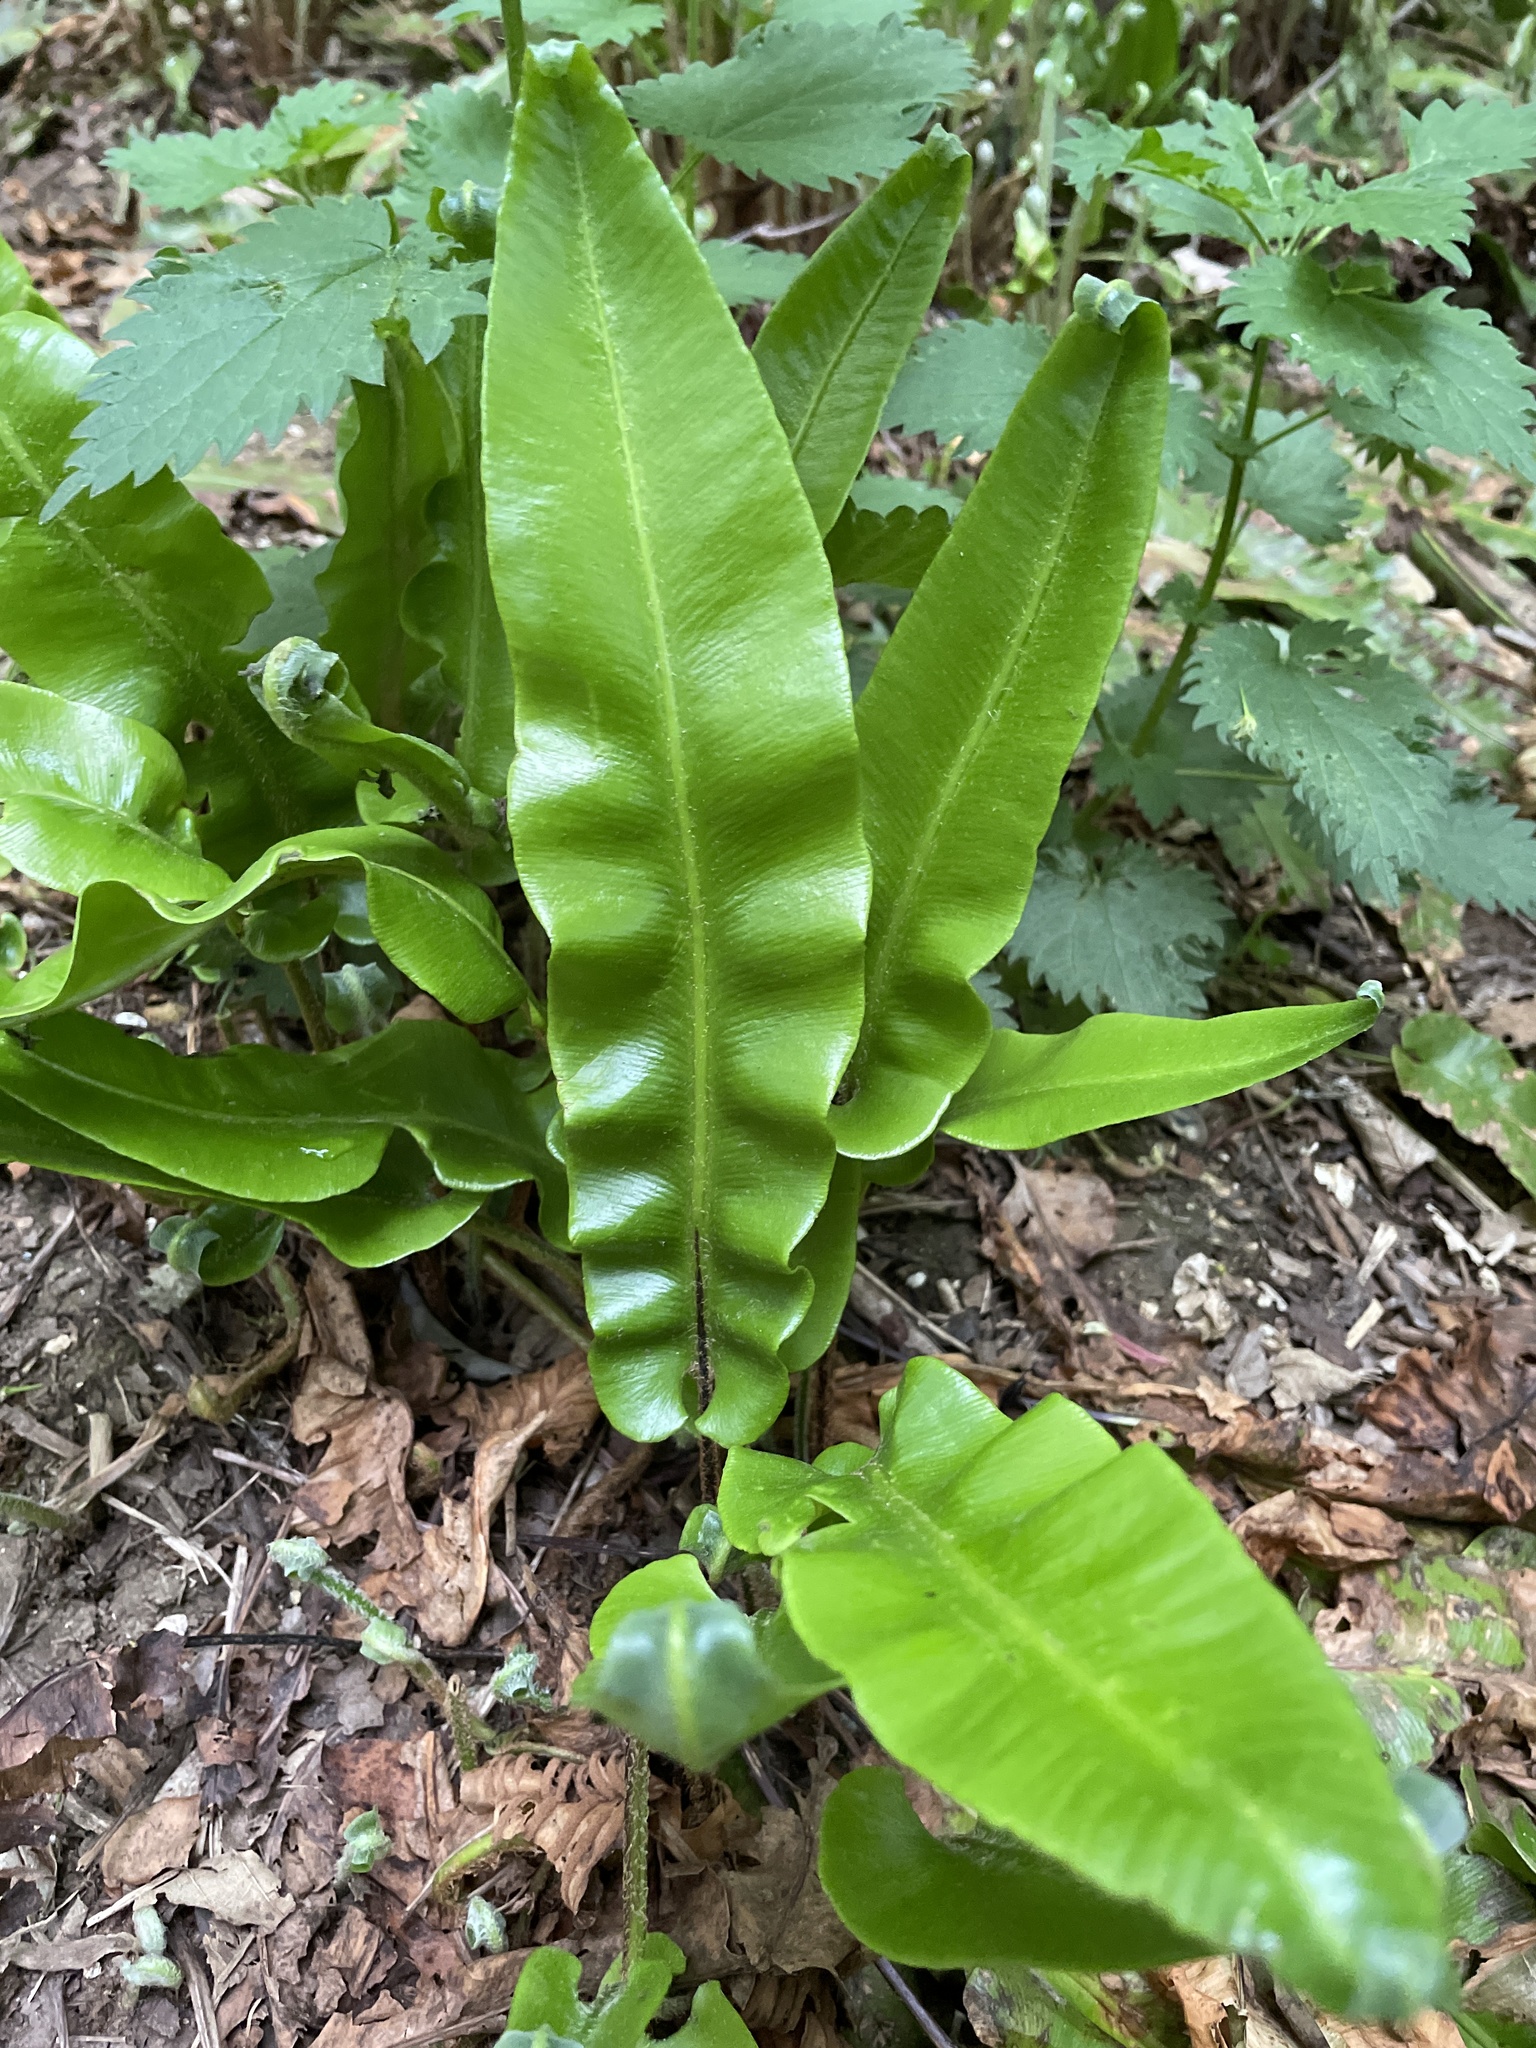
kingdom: Plantae
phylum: Tracheophyta
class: Polypodiopsida
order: Polypodiales
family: Aspleniaceae
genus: Asplenium
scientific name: Asplenium scolopendrium
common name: Hart's-tongue fern
